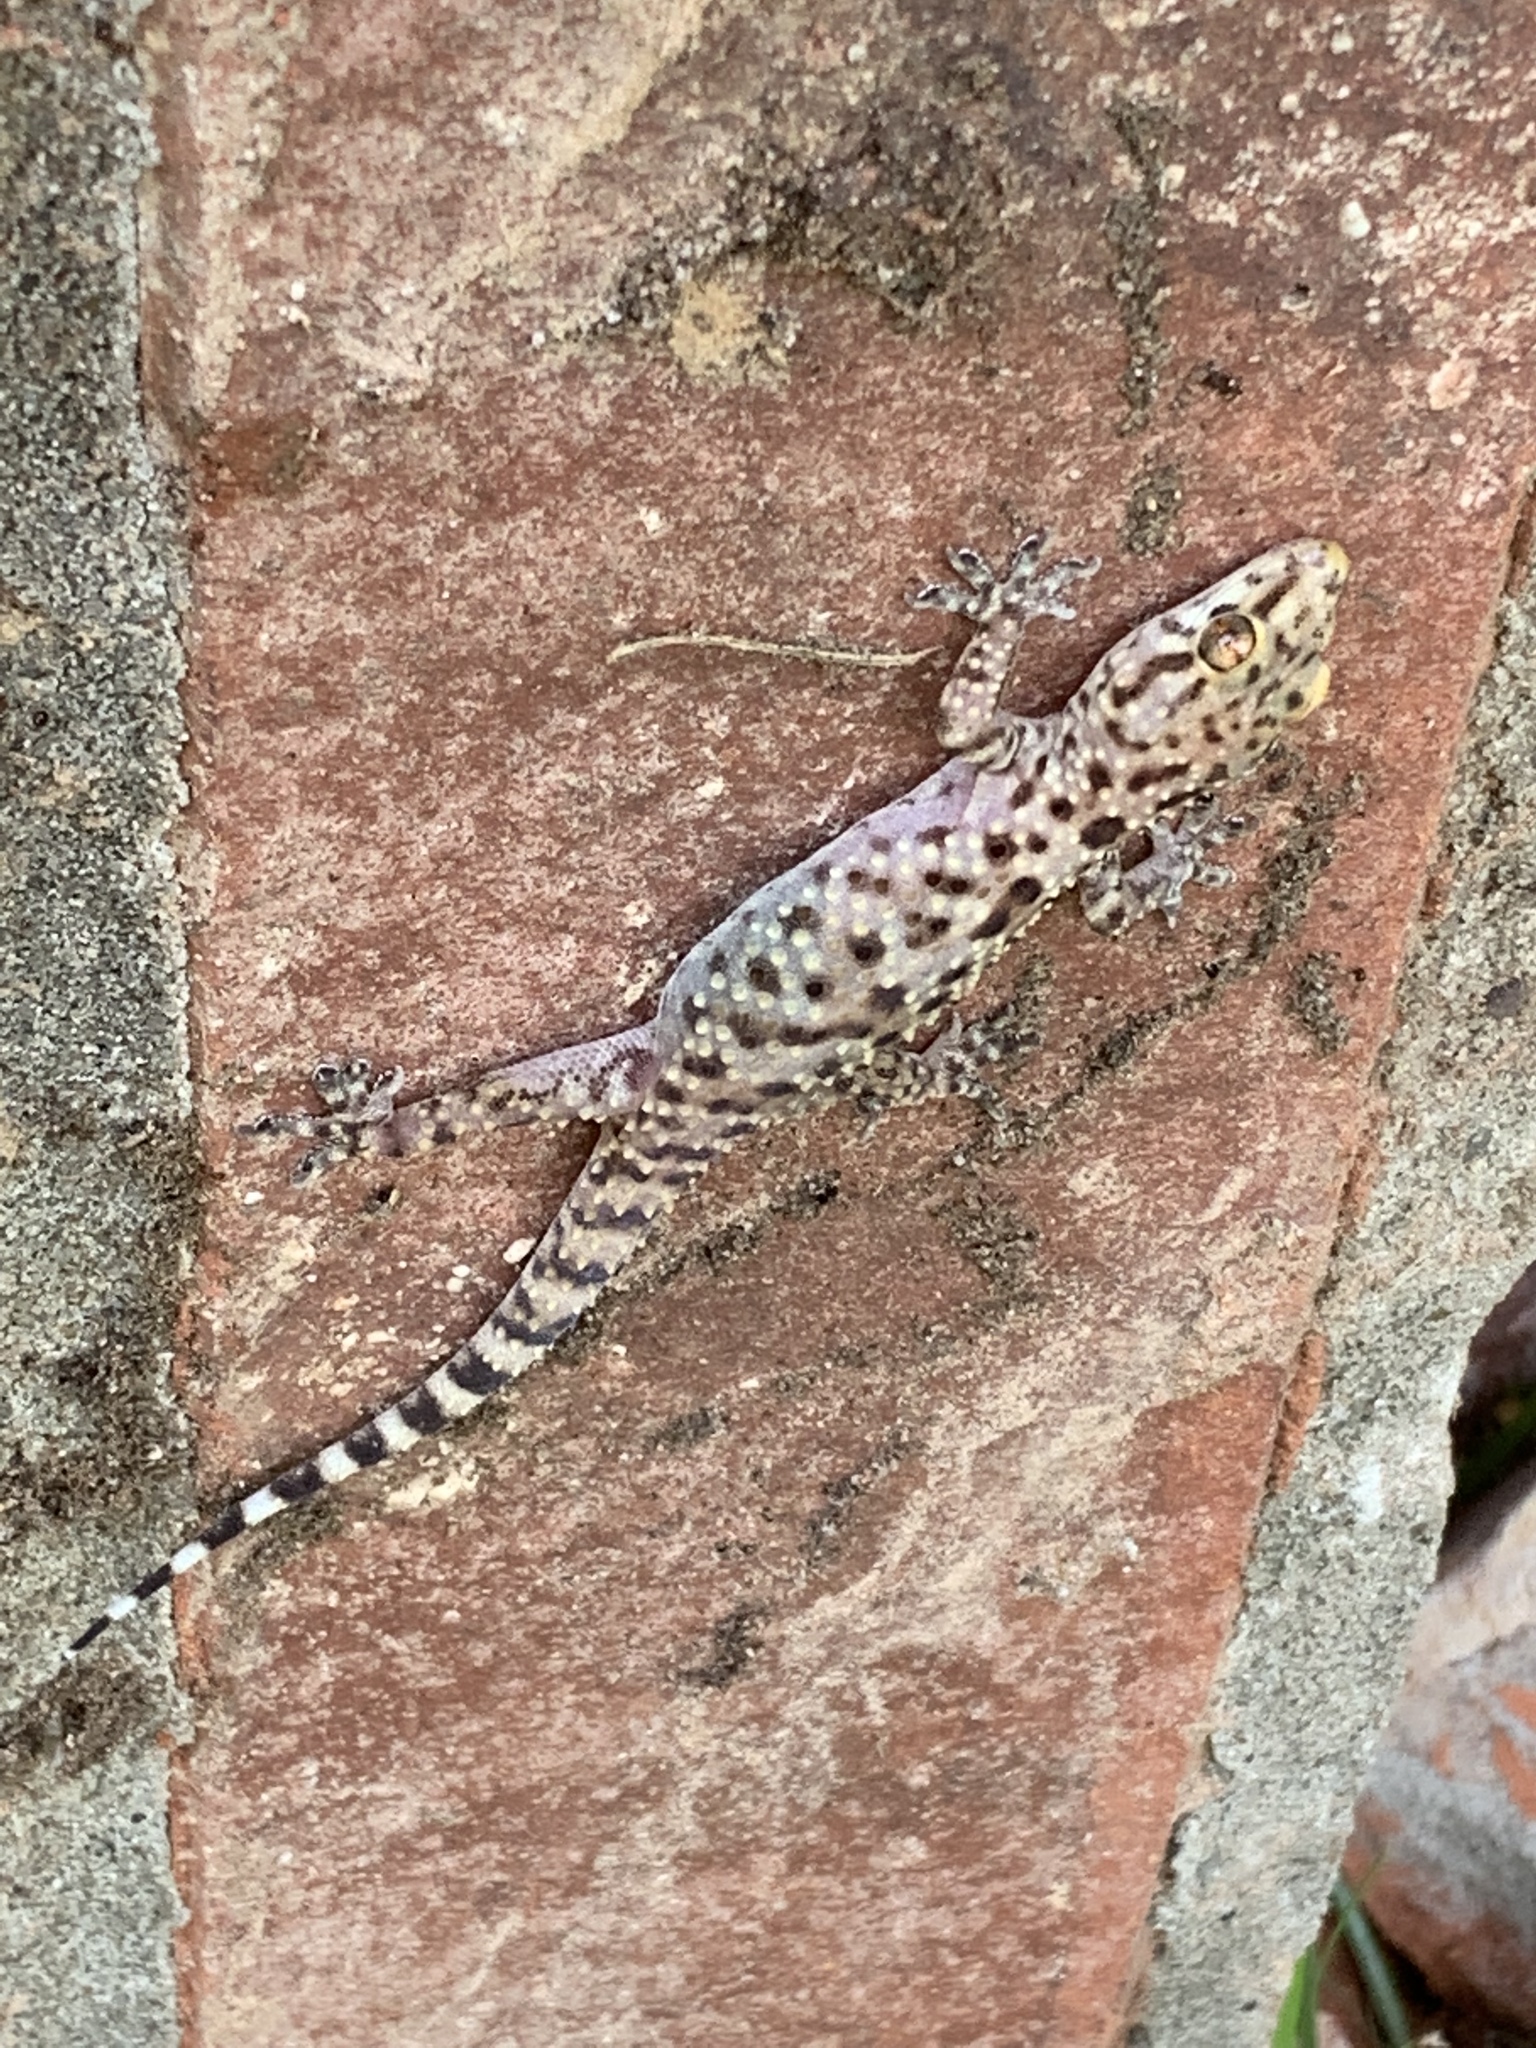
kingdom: Animalia
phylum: Chordata
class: Squamata
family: Gekkonidae
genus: Hemidactylus
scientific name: Hemidactylus turcicus
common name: Turkish gecko
